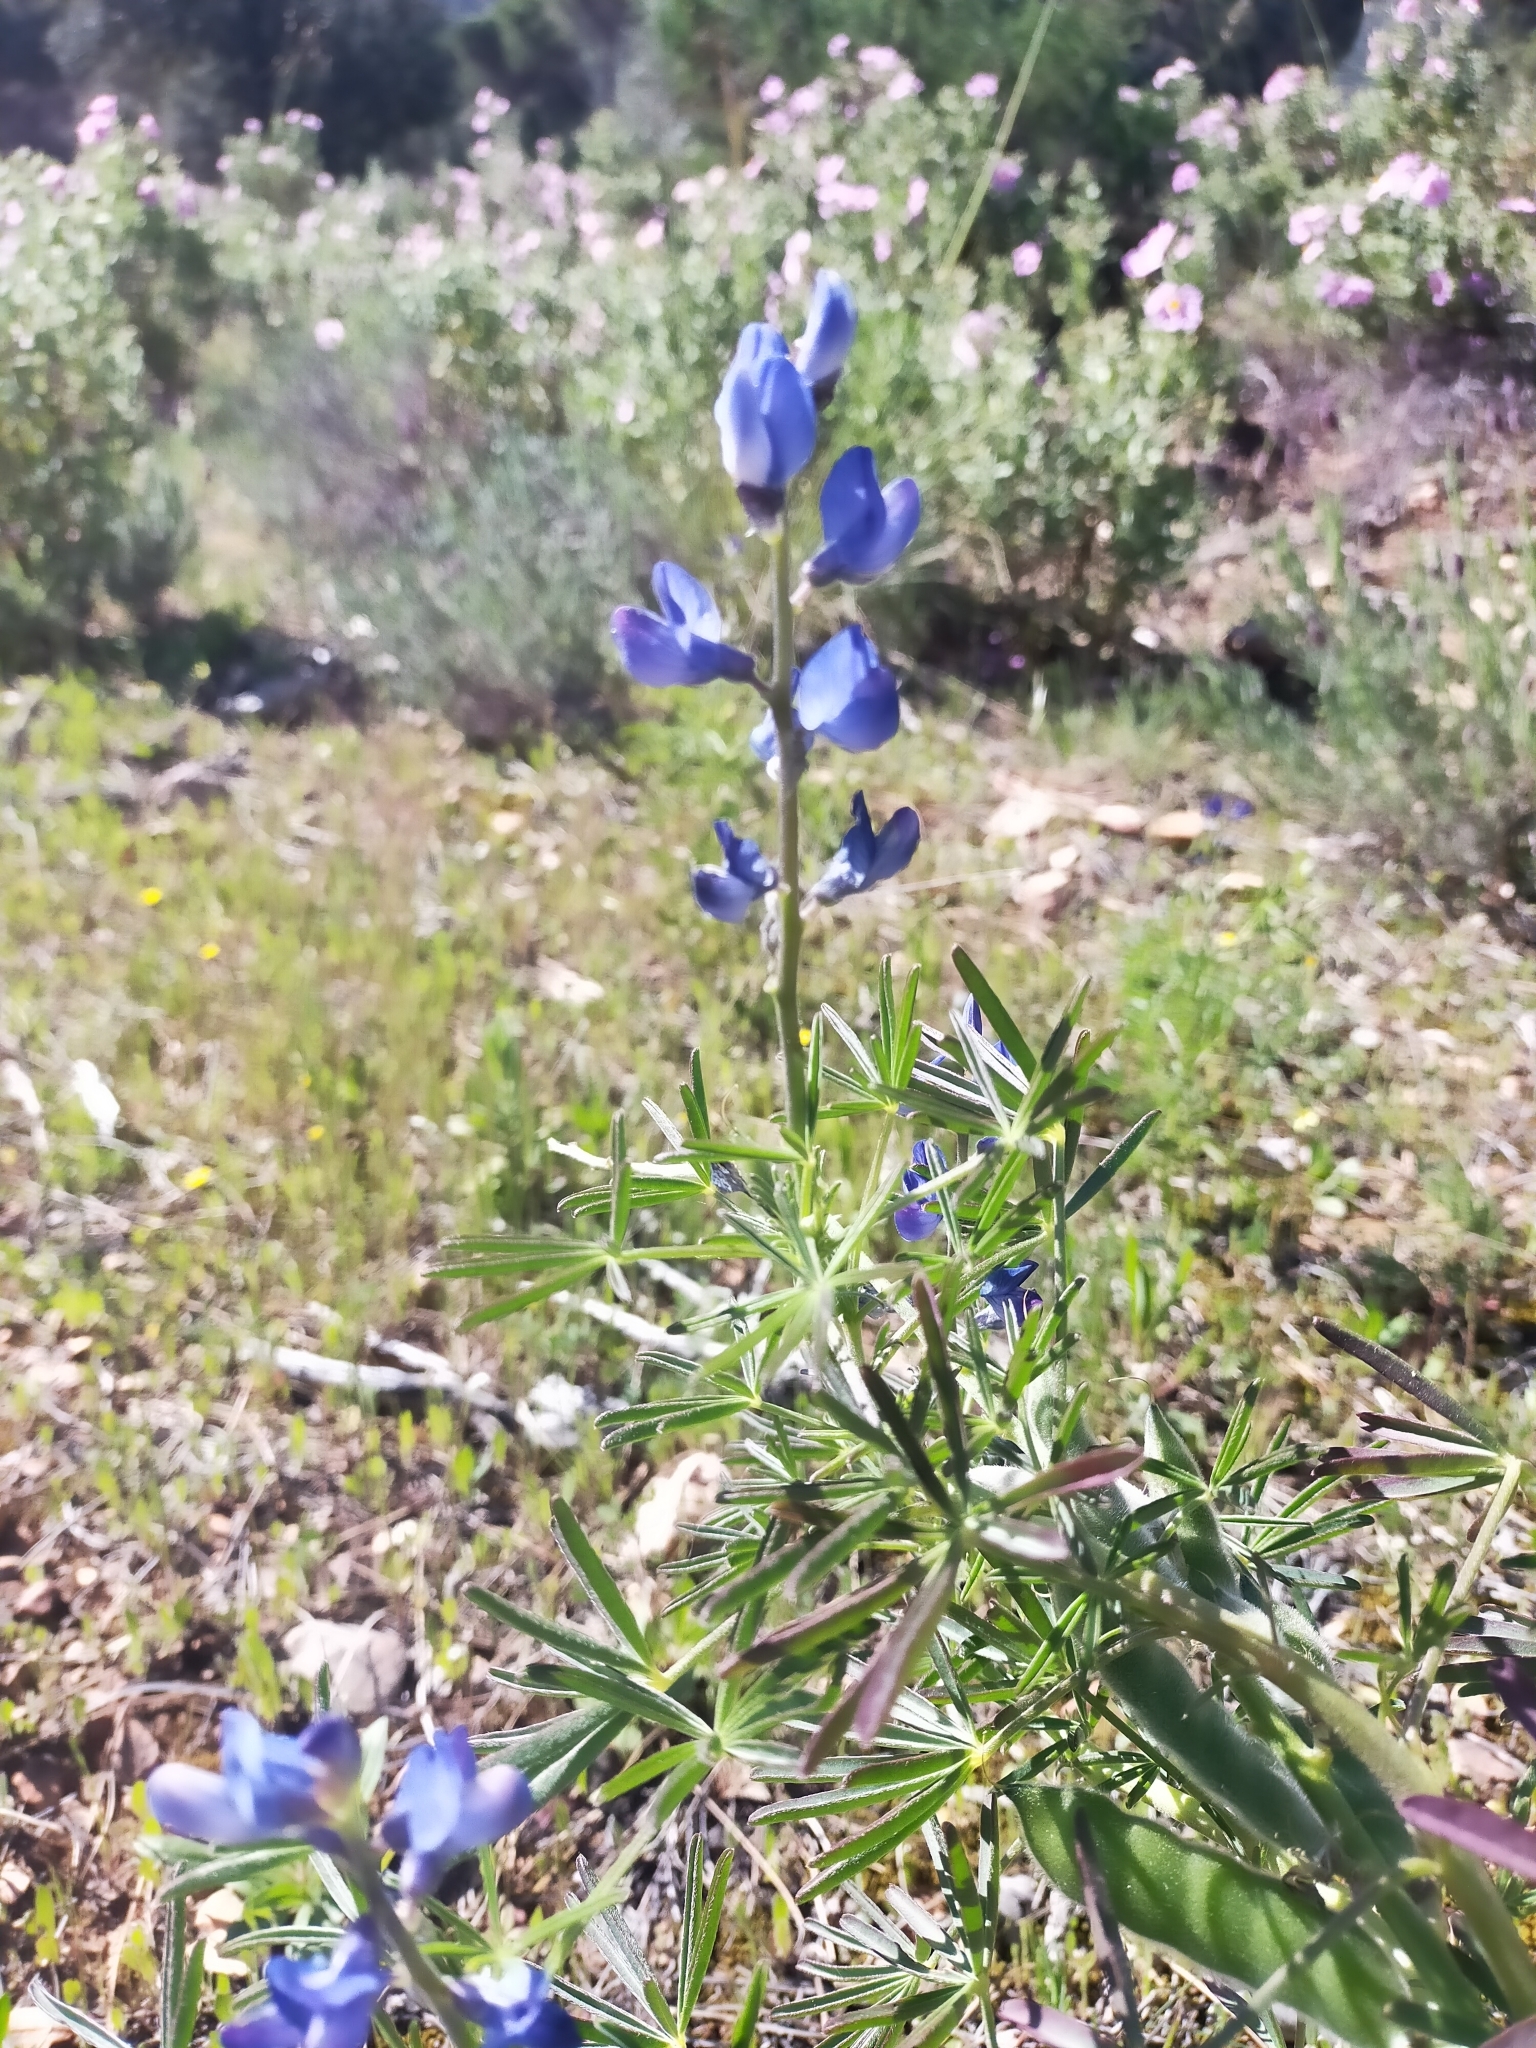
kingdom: Plantae
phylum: Tracheophyta
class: Magnoliopsida
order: Fabales
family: Fabaceae
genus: Lupinus
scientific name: Lupinus angustifolius
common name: Narrow-leaved lupin
